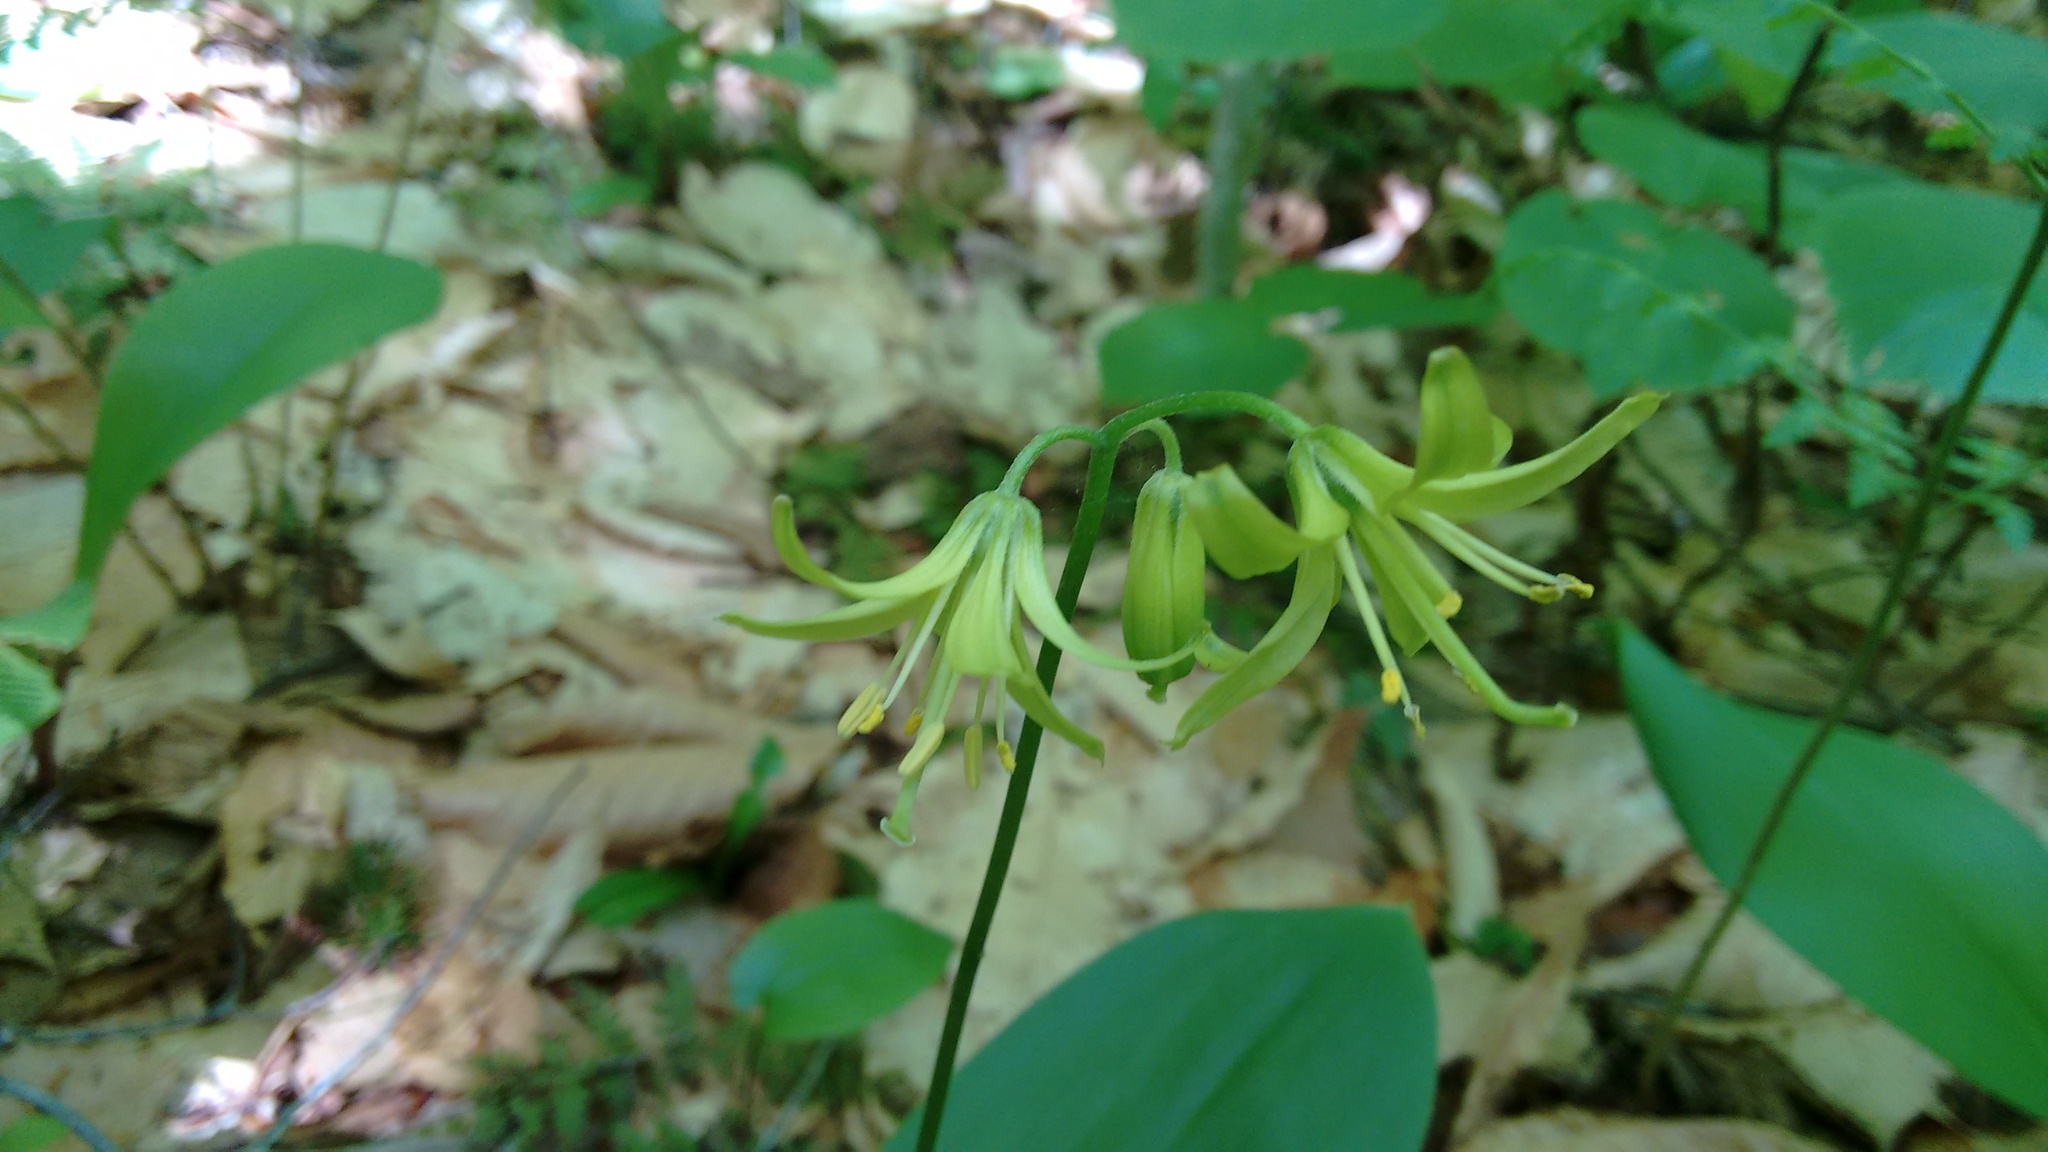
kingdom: Plantae
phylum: Tracheophyta
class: Liliopsida
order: Liliales
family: Liliaceae
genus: Clintonia
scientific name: Clintonia borealis
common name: Yellow clintonia
